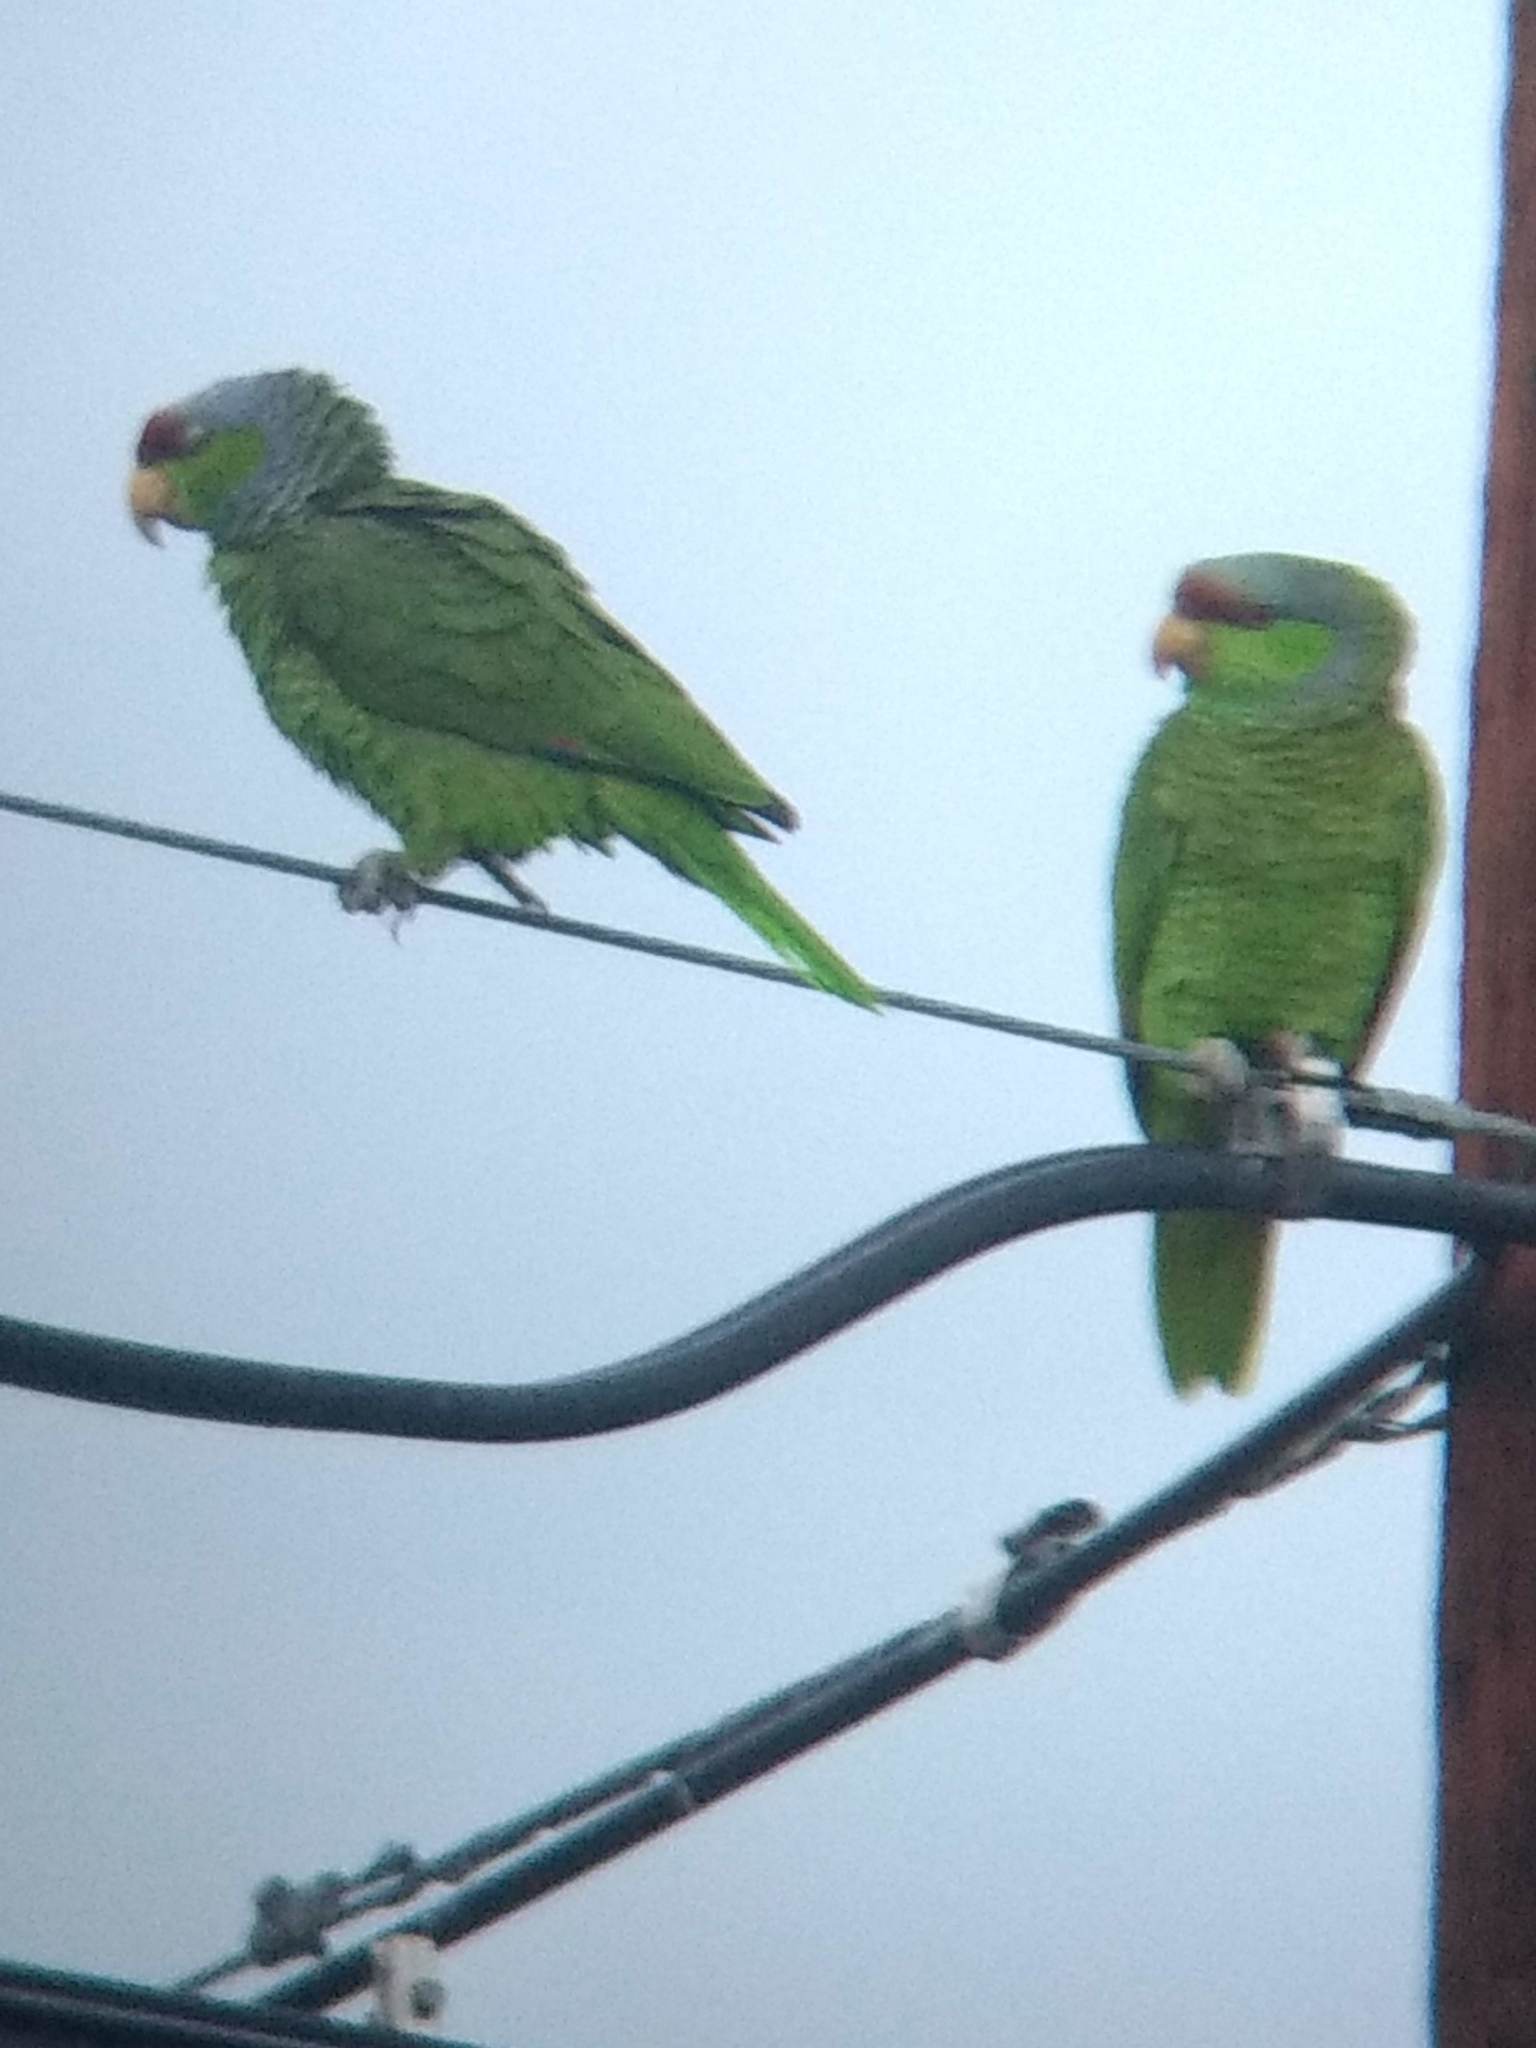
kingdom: Animalia
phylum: Chordata
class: Aves
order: Psittaciformes
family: Psittacidae
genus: Amazona
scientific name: Amazona finschi
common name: Lilac-crowned amazon
